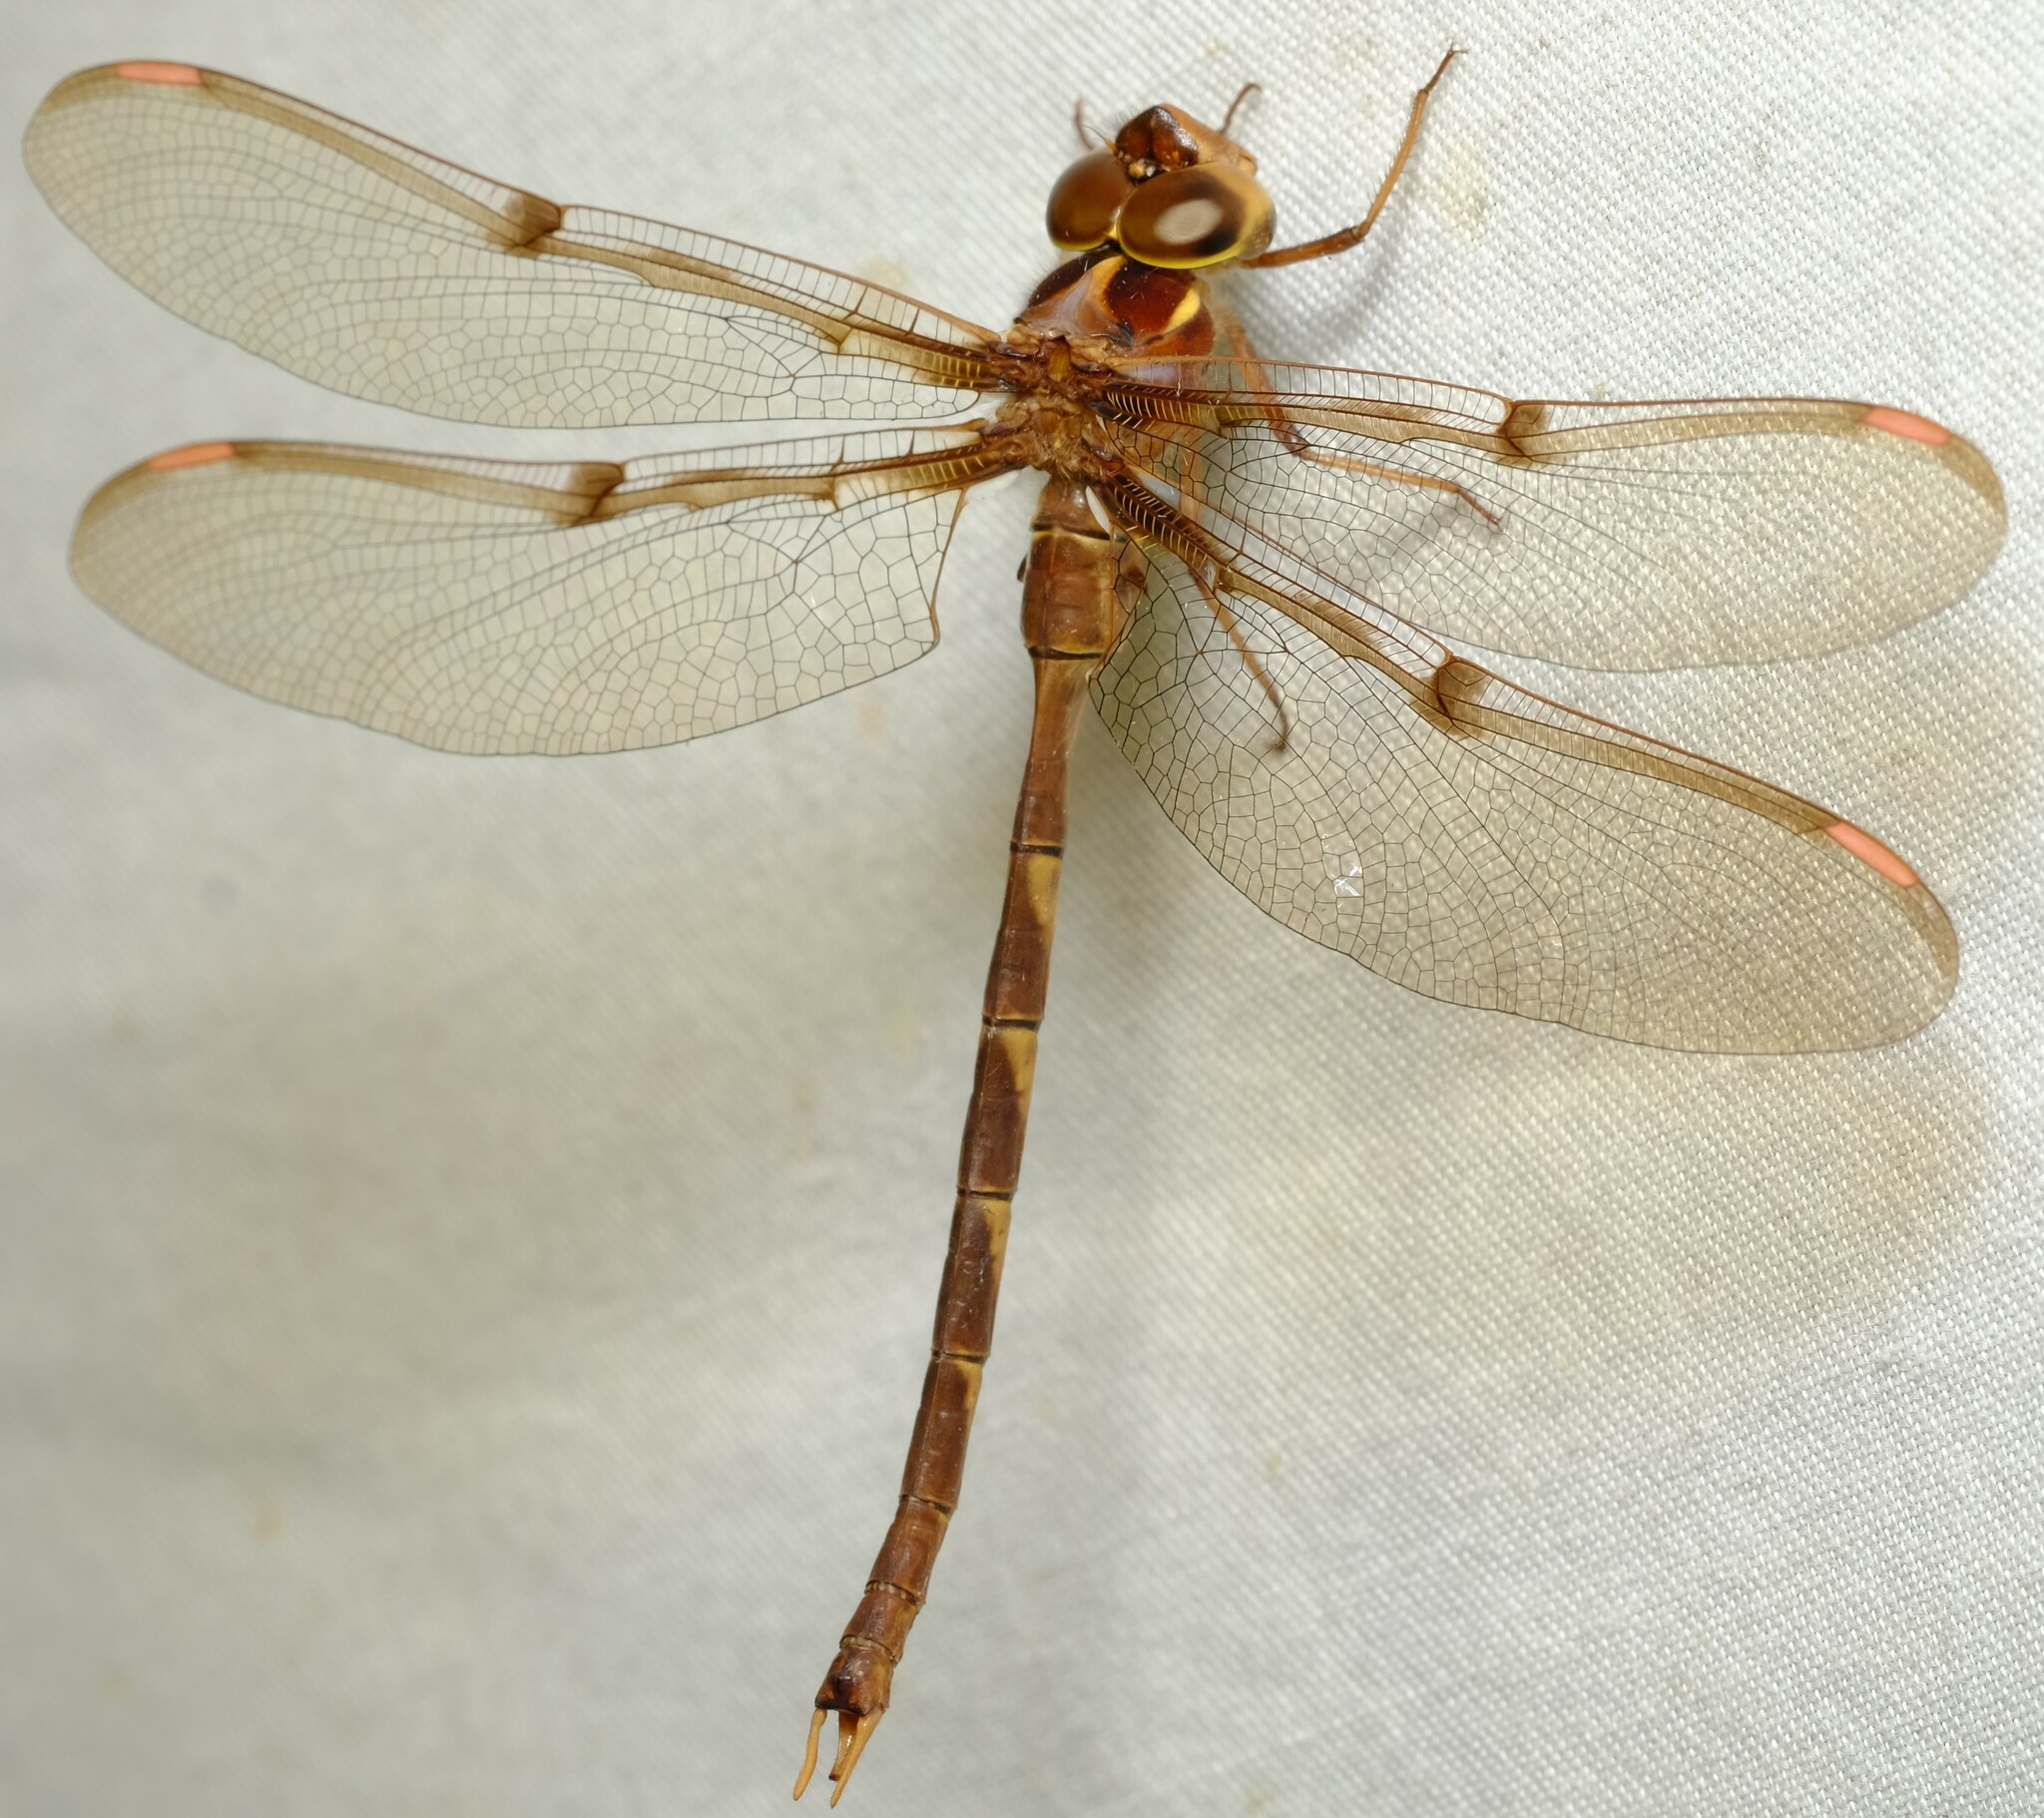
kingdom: Animalia
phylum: Arthropoda
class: Insecta
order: Odonata
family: Aeshnidae
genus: Telephlebia
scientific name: Telephlebia brevicauda
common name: Southern evening darner
